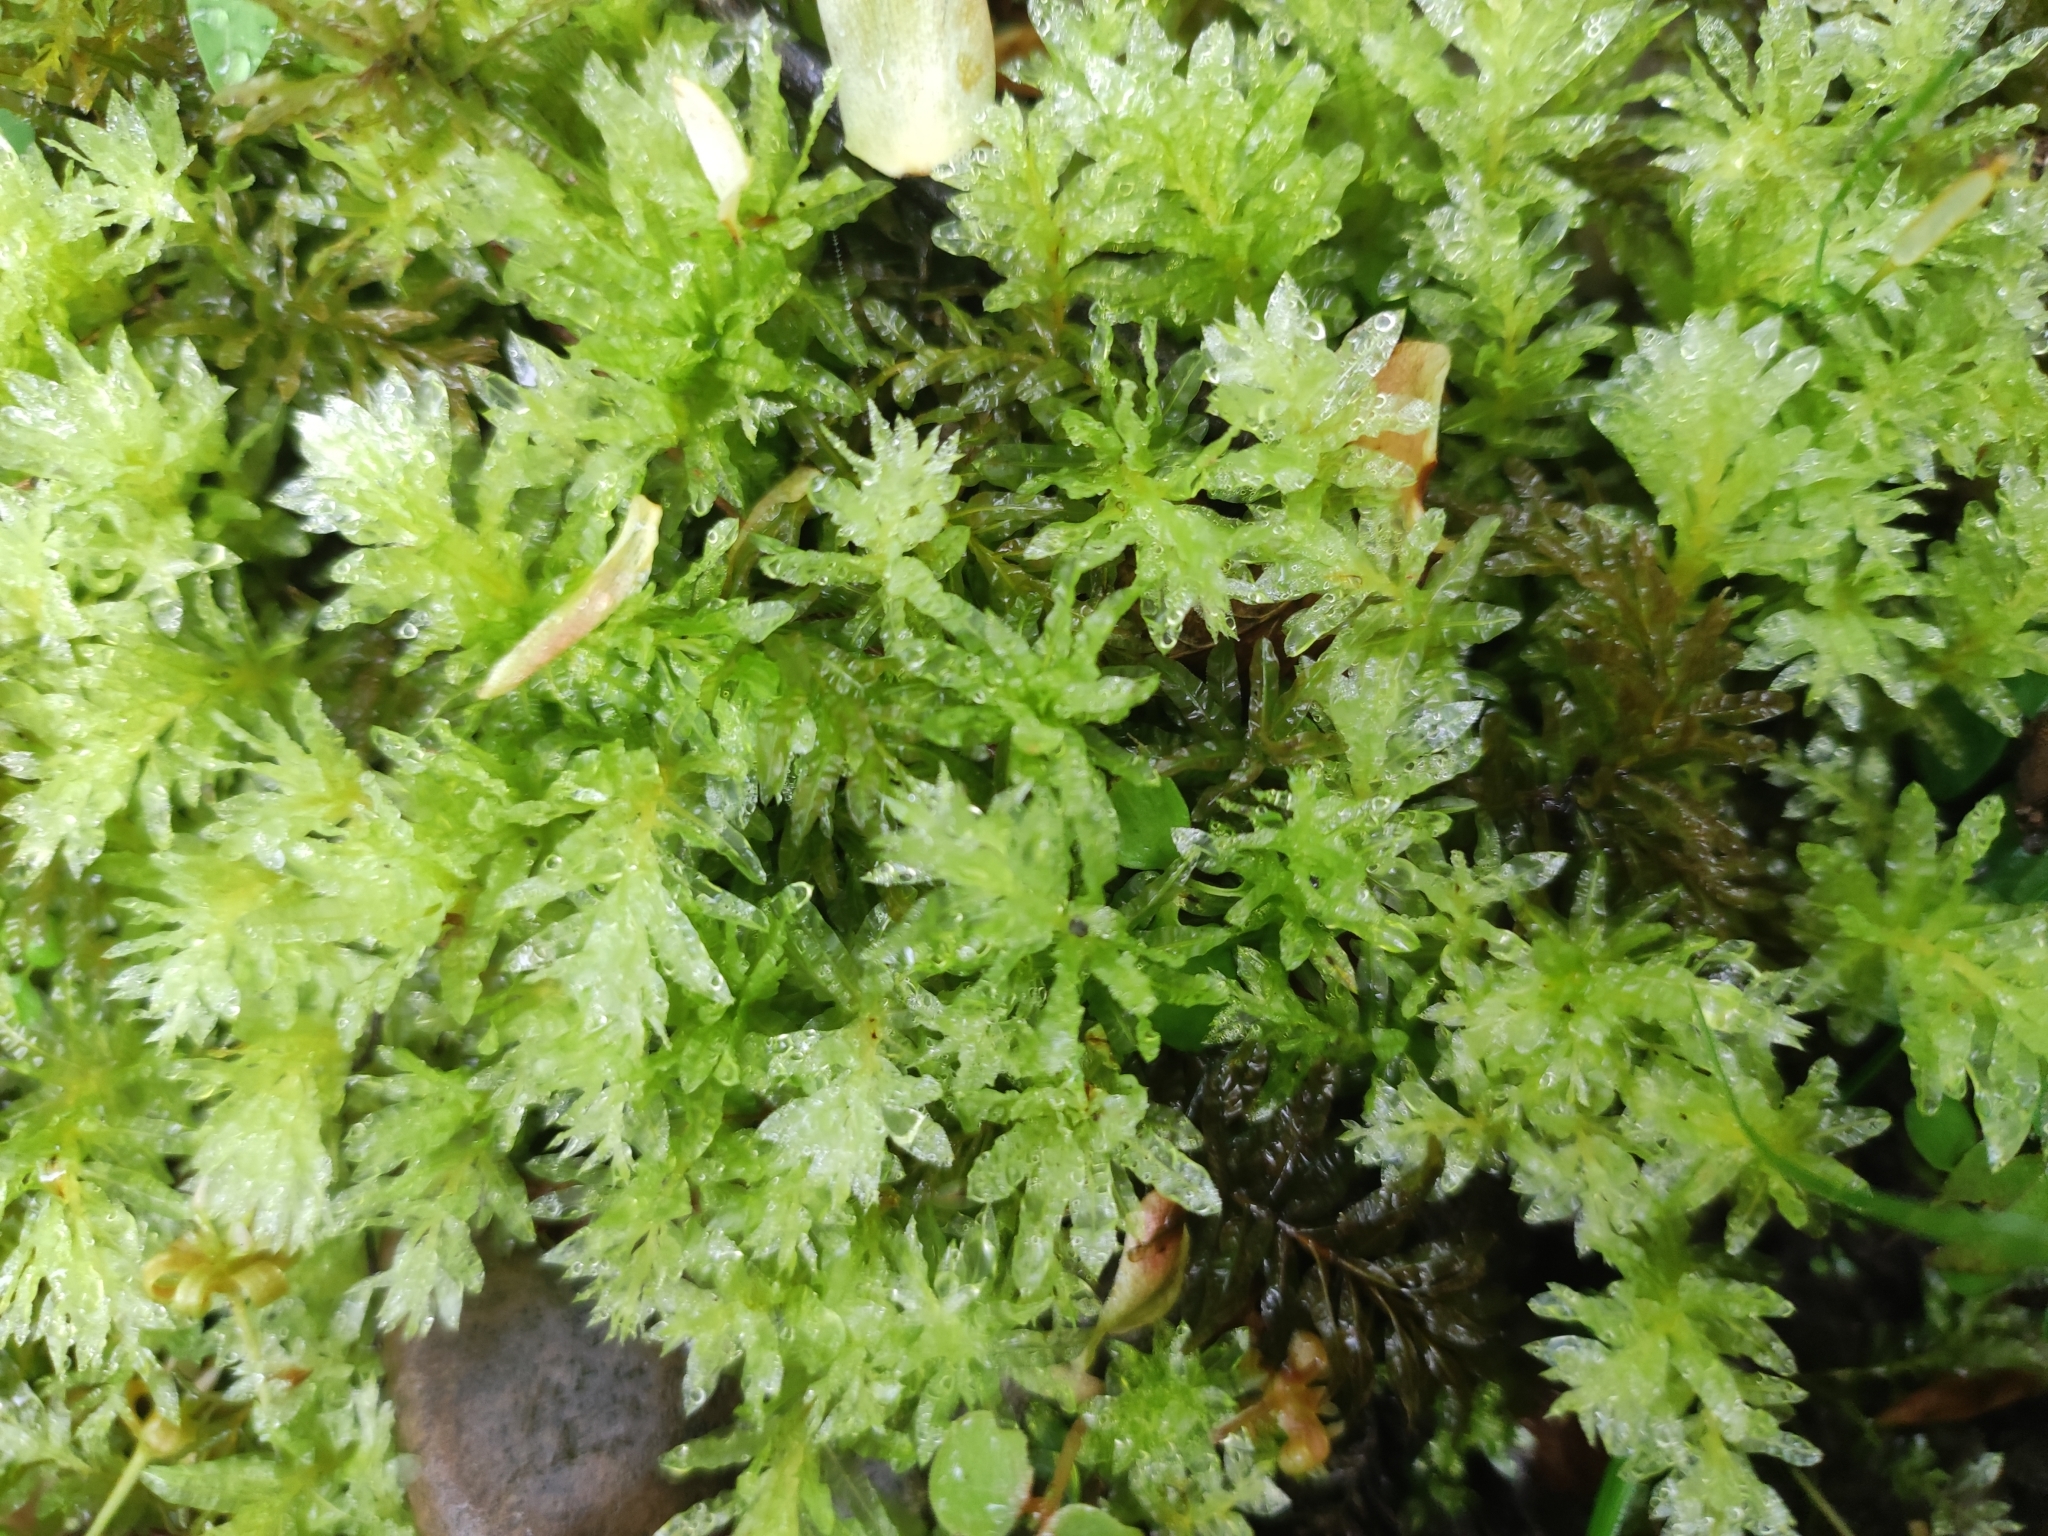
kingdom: Plantae
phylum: Bryophyta
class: Bryopsida
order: Bryales
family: Mniaceae
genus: Plagiomnium
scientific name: Plagiomnium undulatum
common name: Hart's-tongue thyme-moss
